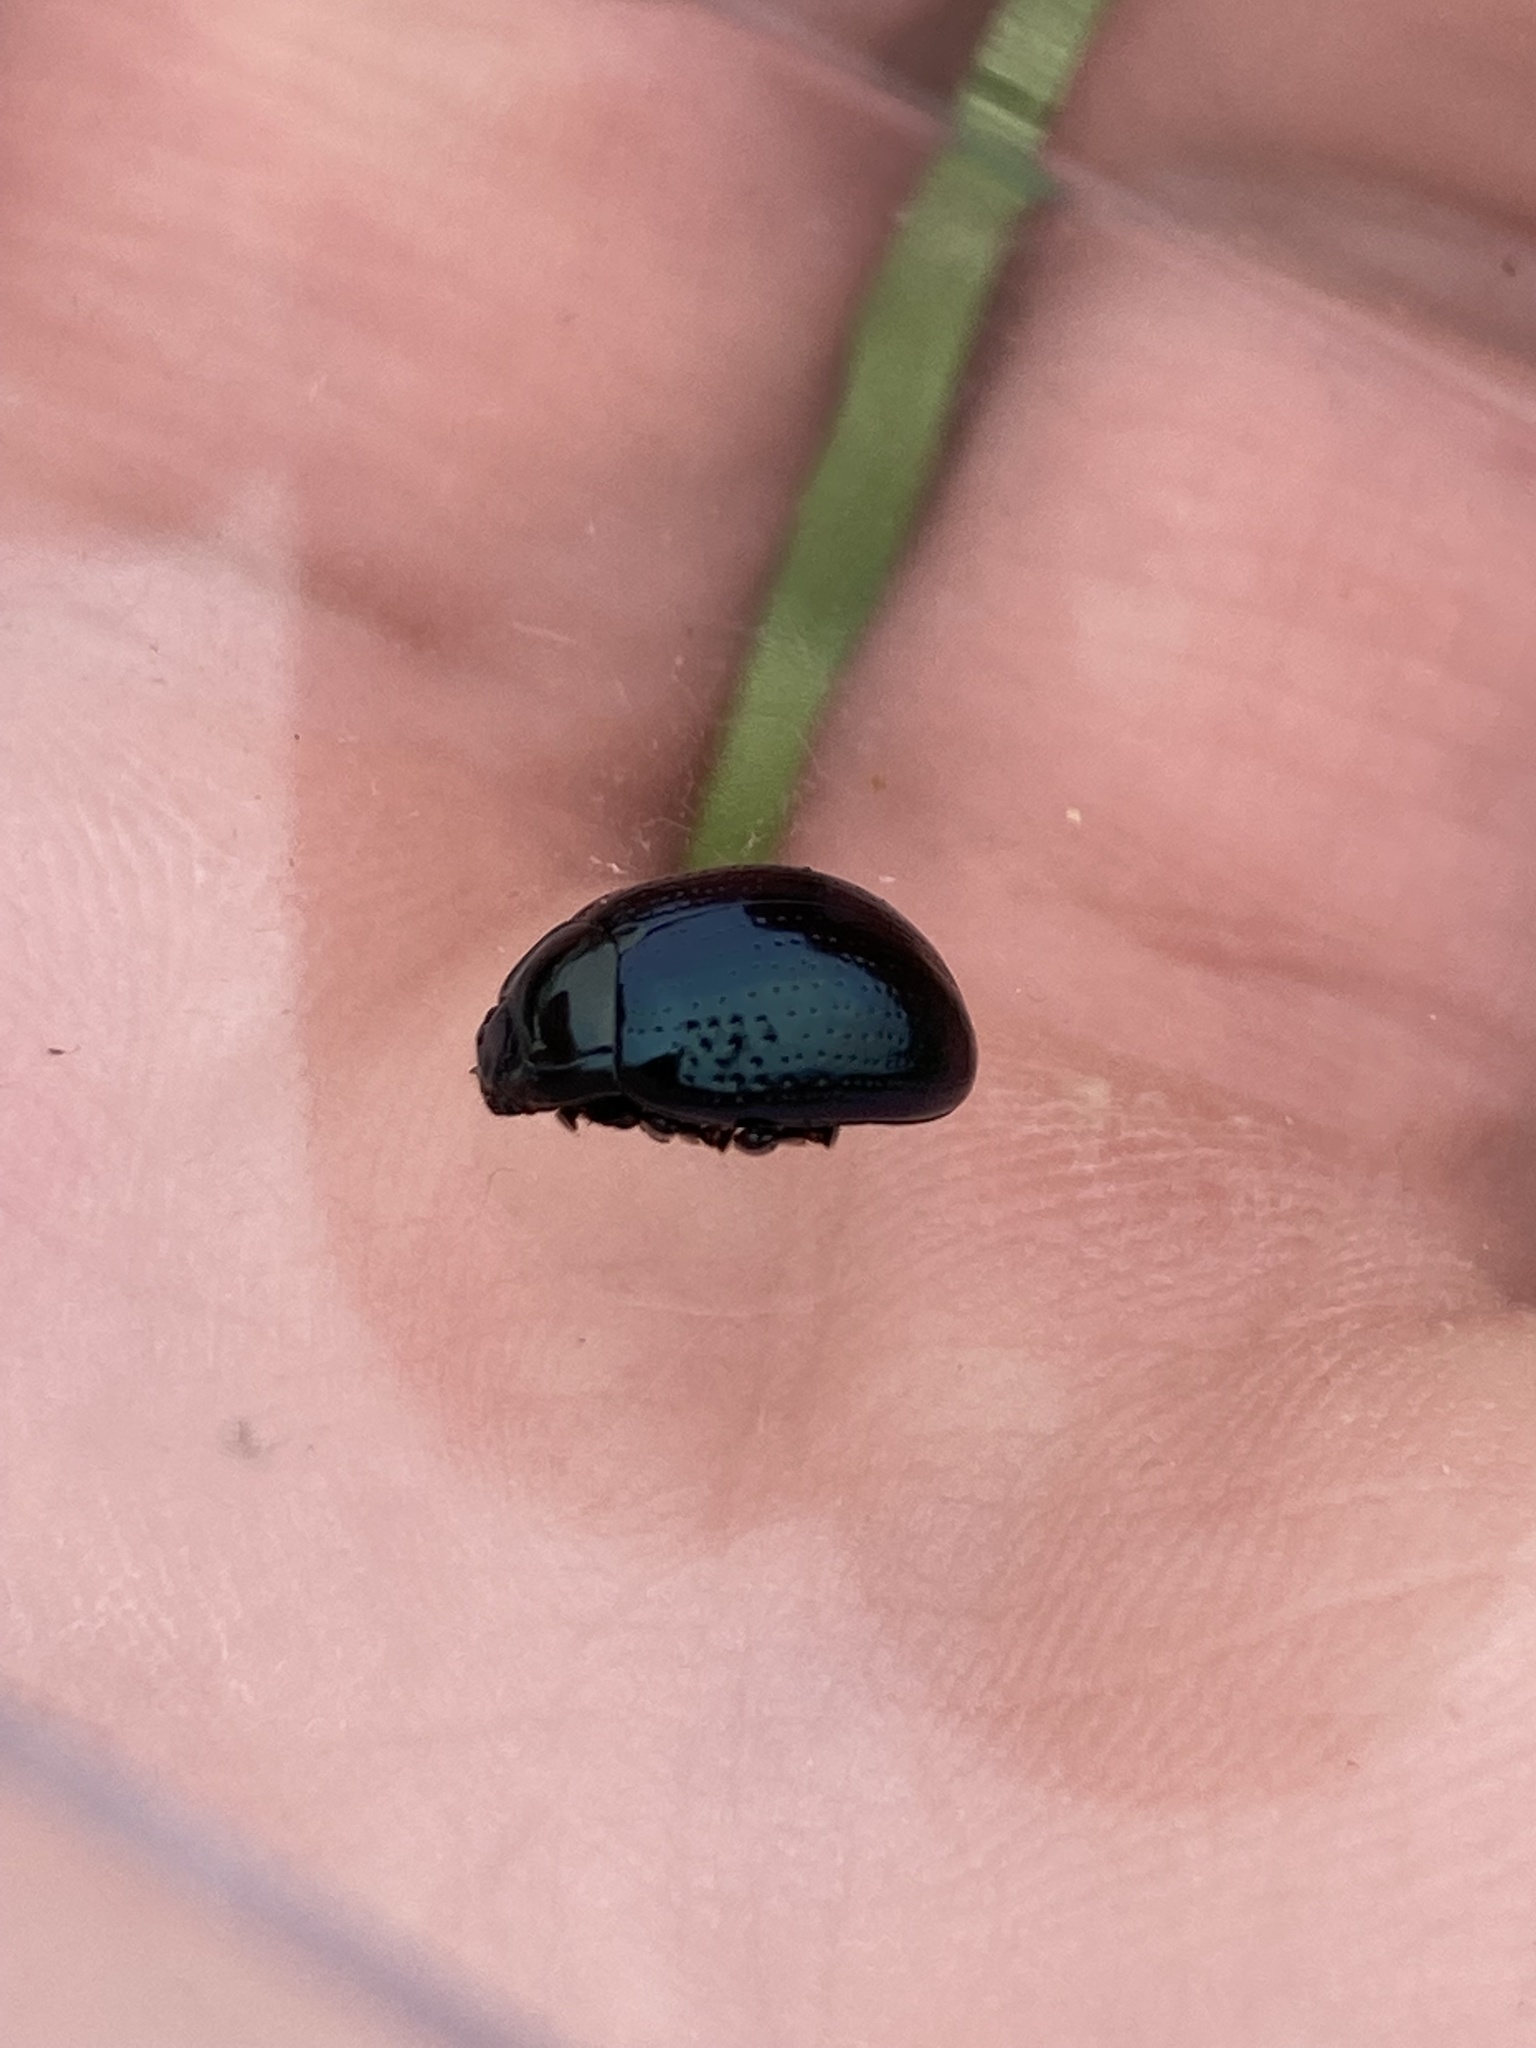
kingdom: Animalia
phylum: Arthropoda
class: Insecta
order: Coleoptera
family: Chrysomelidae
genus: Chrysolina
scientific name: Chrysolina oricalcia
